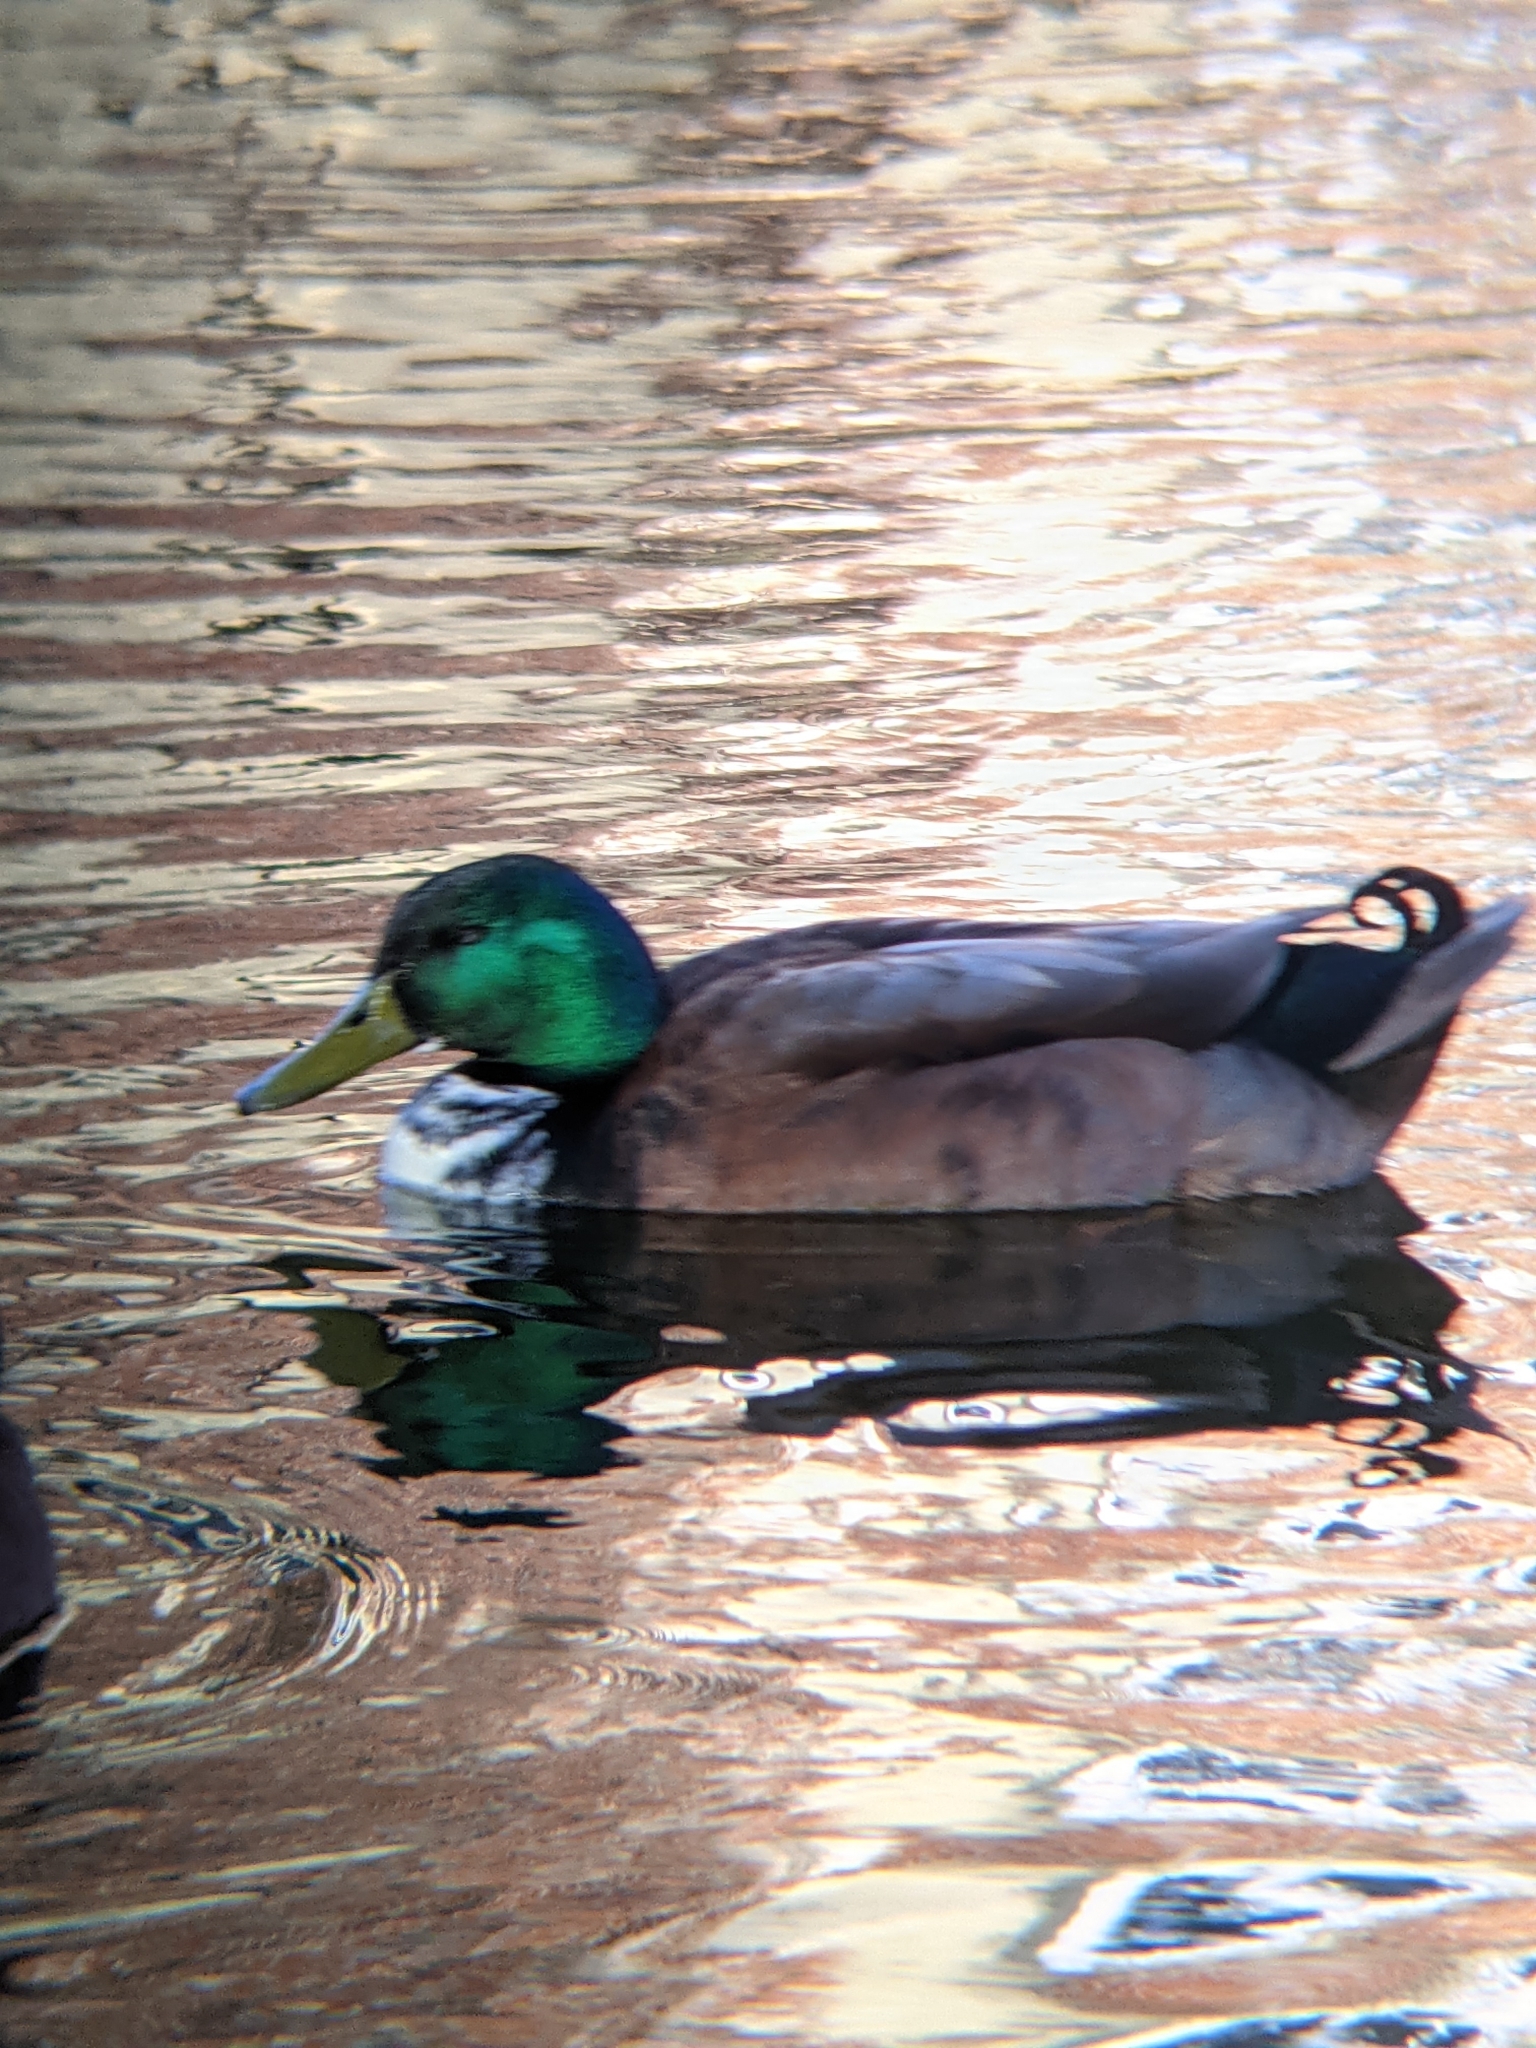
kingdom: Animalia
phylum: Chordata
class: Aves
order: Anseriformes
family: Anatidae
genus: Anas
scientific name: Anas platyrhynchos
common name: Mallard
